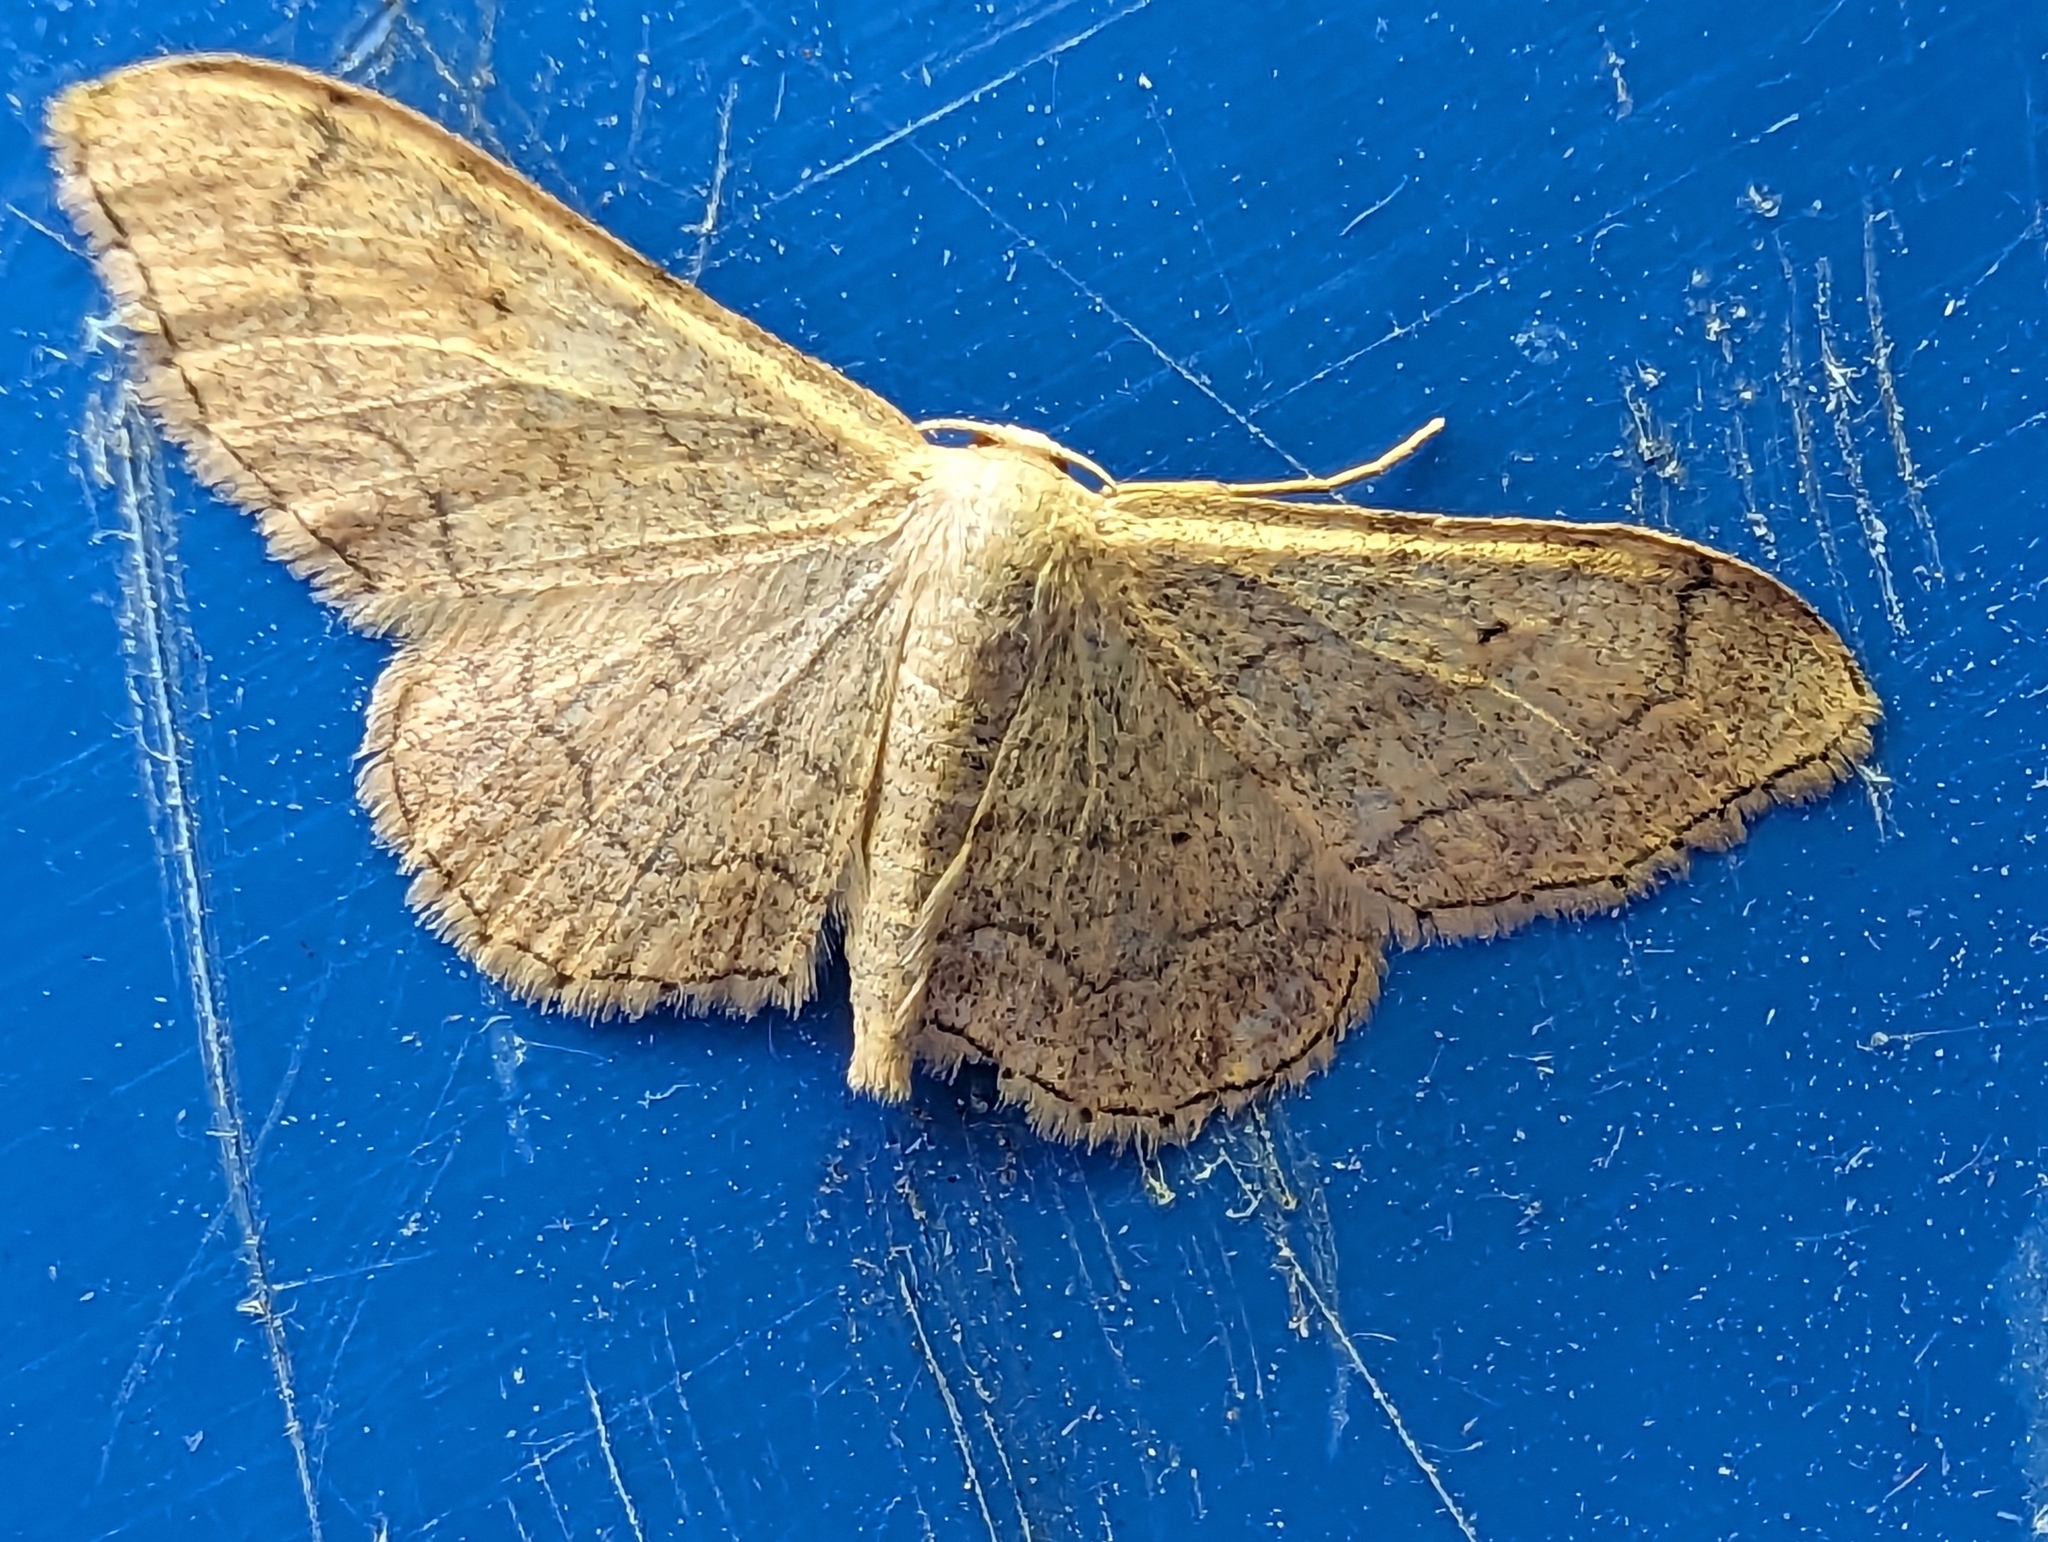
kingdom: Animalia
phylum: Arthropoda
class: Insecta
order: Lepidoptera
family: Geometridae
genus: Idaea
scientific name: Idaea aversata
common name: Riband wave
